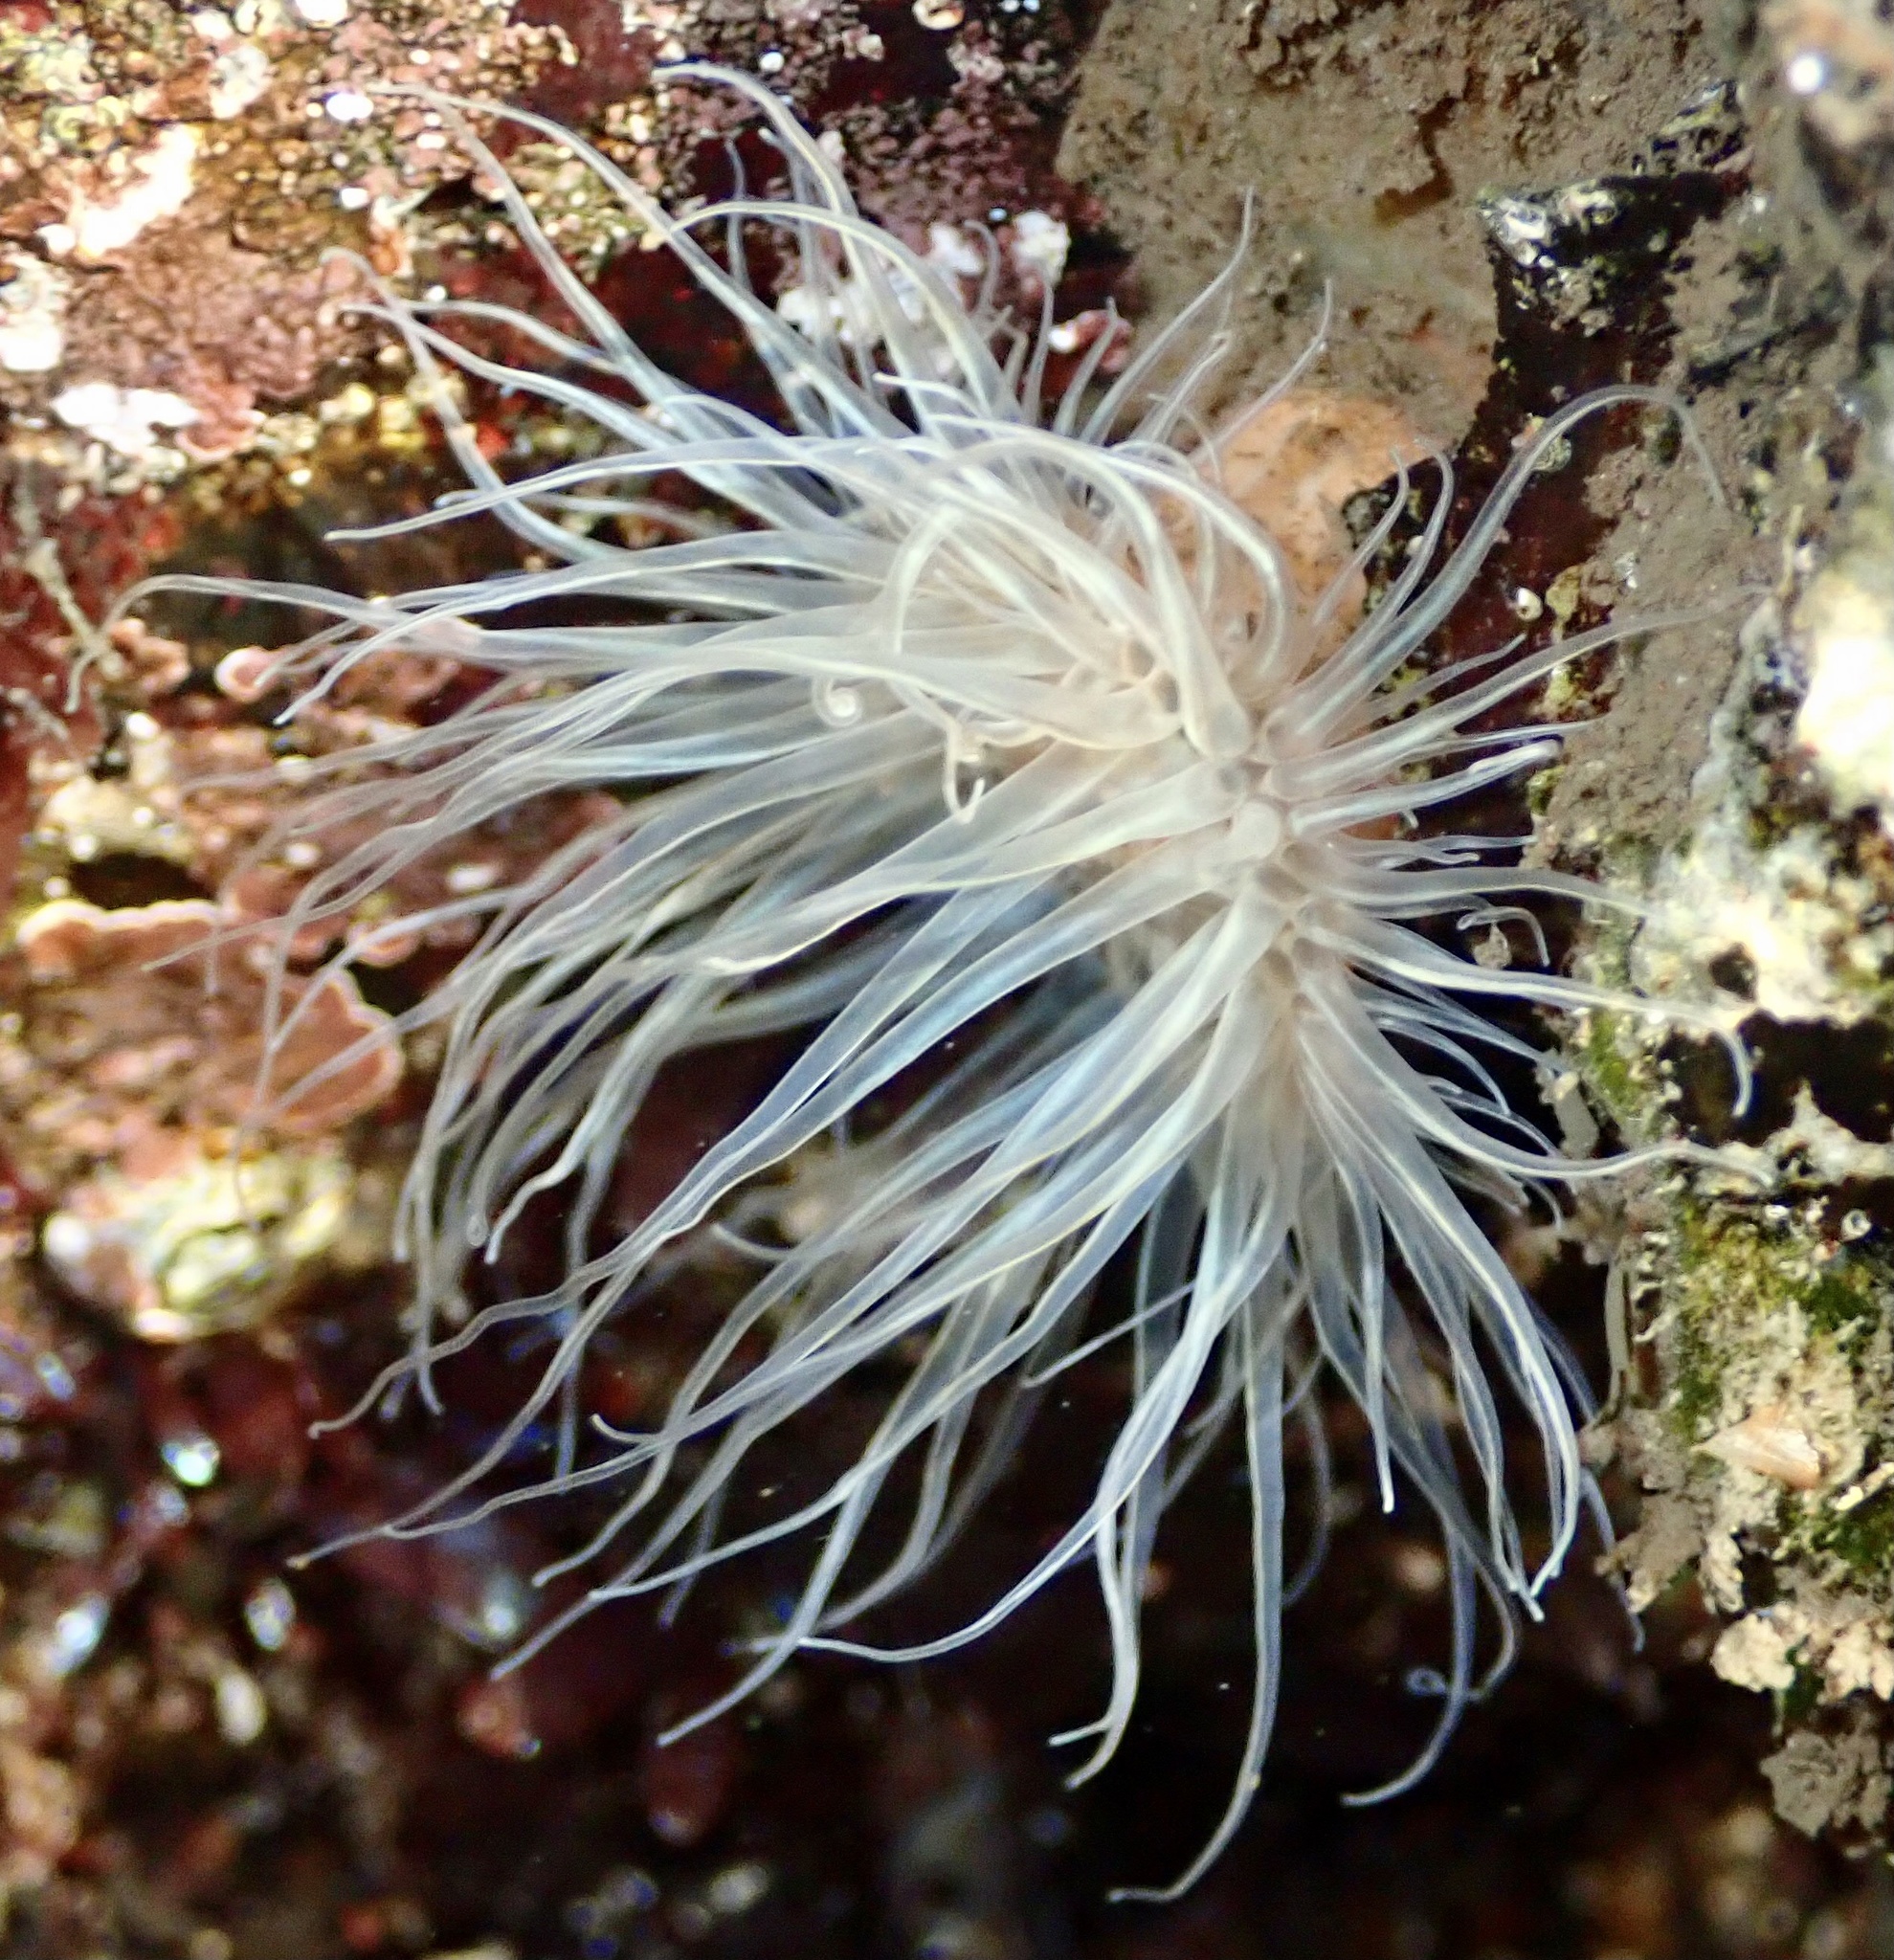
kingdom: Animalia
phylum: Cnidaria
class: Anthozoa
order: Actiniaria
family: Sagartiidae
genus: Sagartia
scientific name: Sagartia undata
